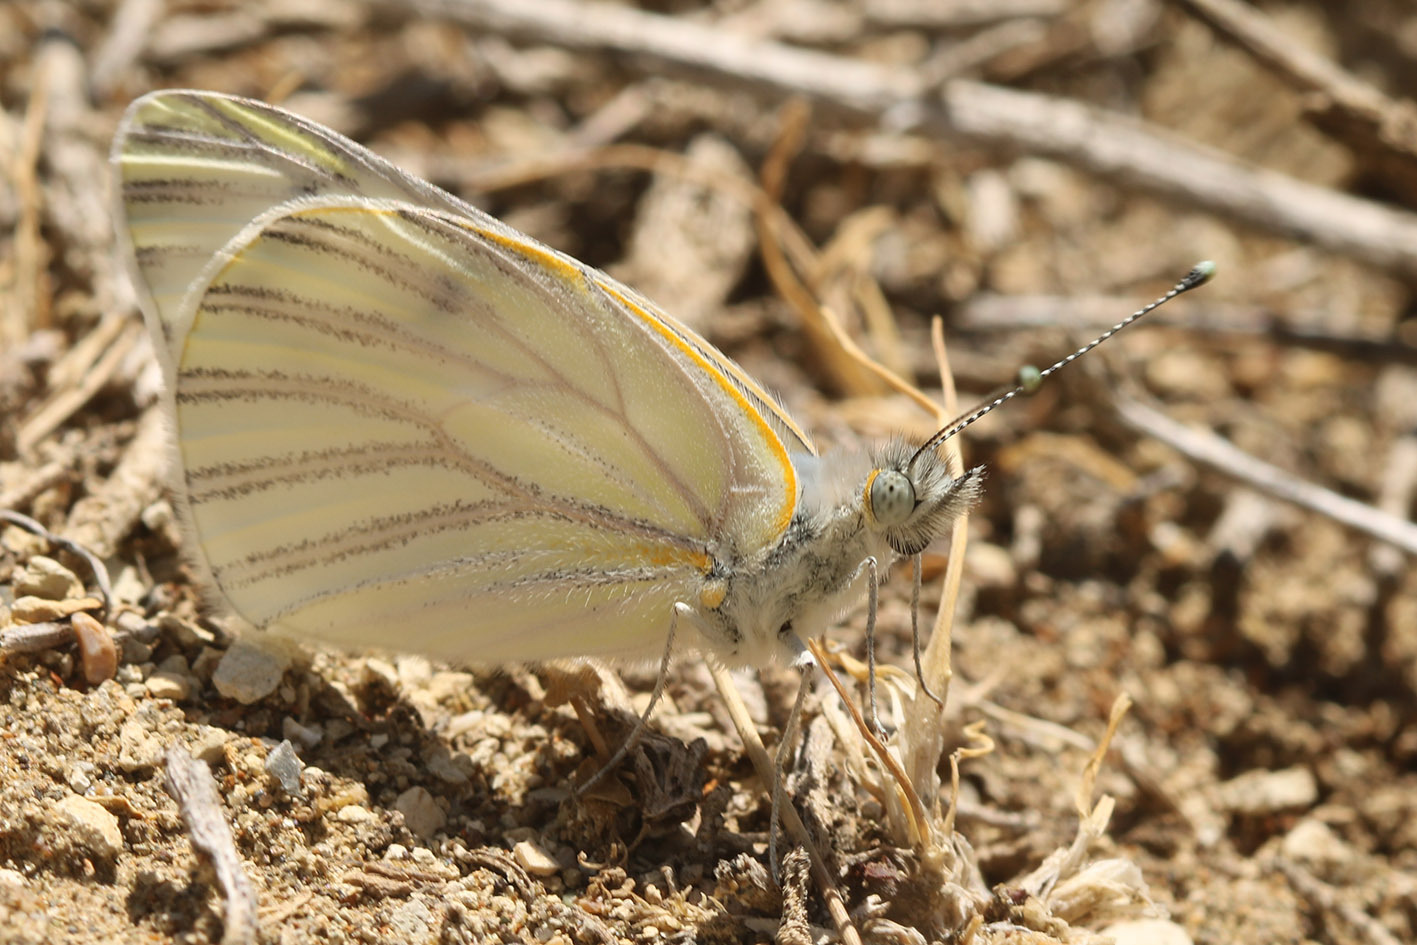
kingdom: Animalia
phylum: Arthropoda
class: Insecta
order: Lepidoptera
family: Pieridae
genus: Tatochila
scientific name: Tatochila mercedis
